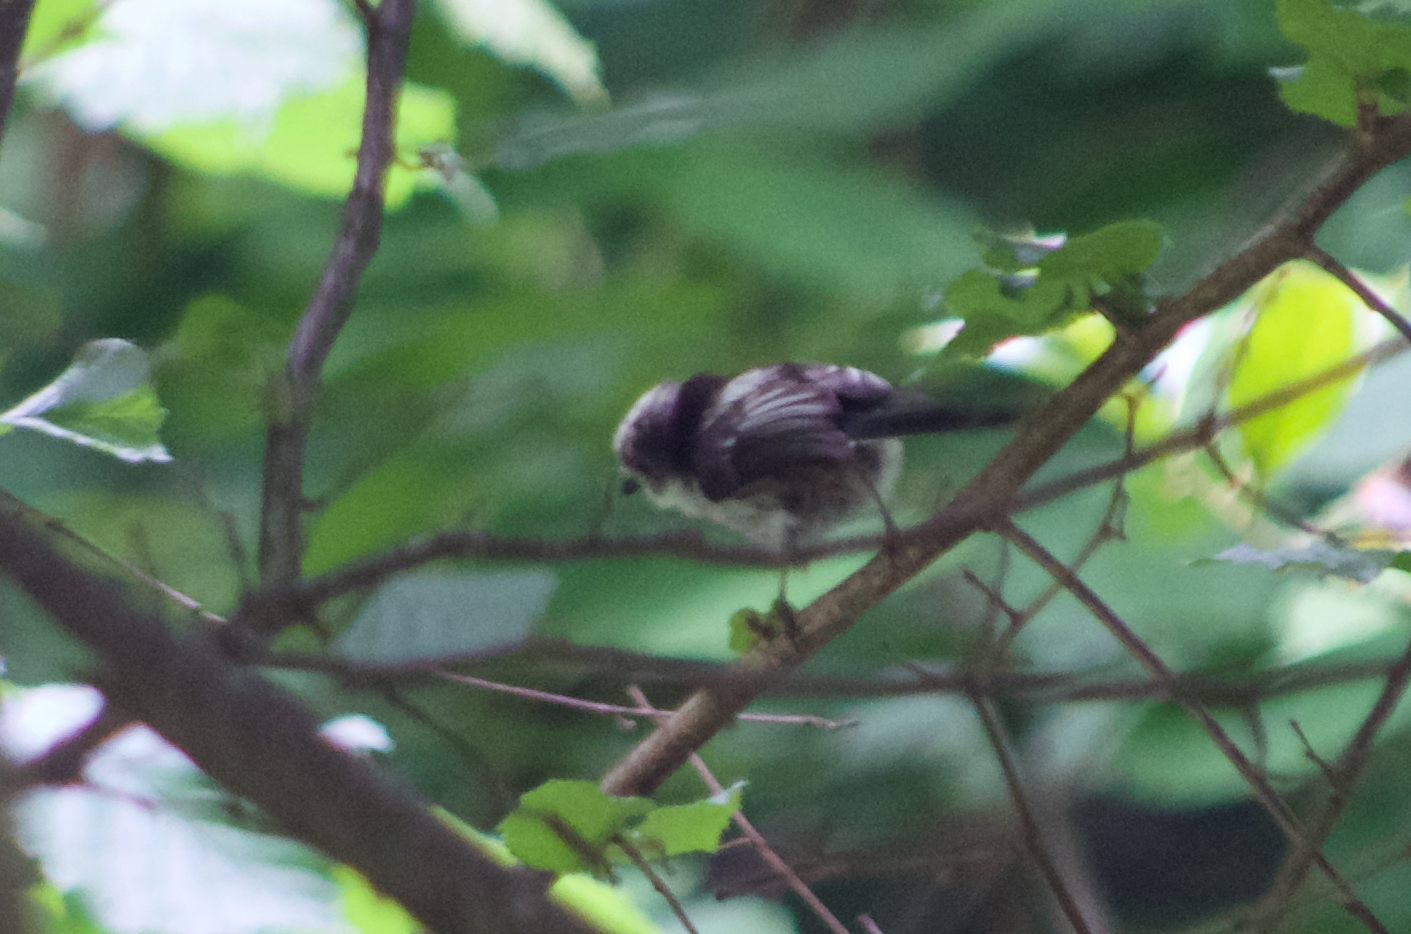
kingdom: Animalia
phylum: Chordata
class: Aves
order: Passeriformes
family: Aegithalidae
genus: Aegithalos
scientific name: Aegithalos caudatus
